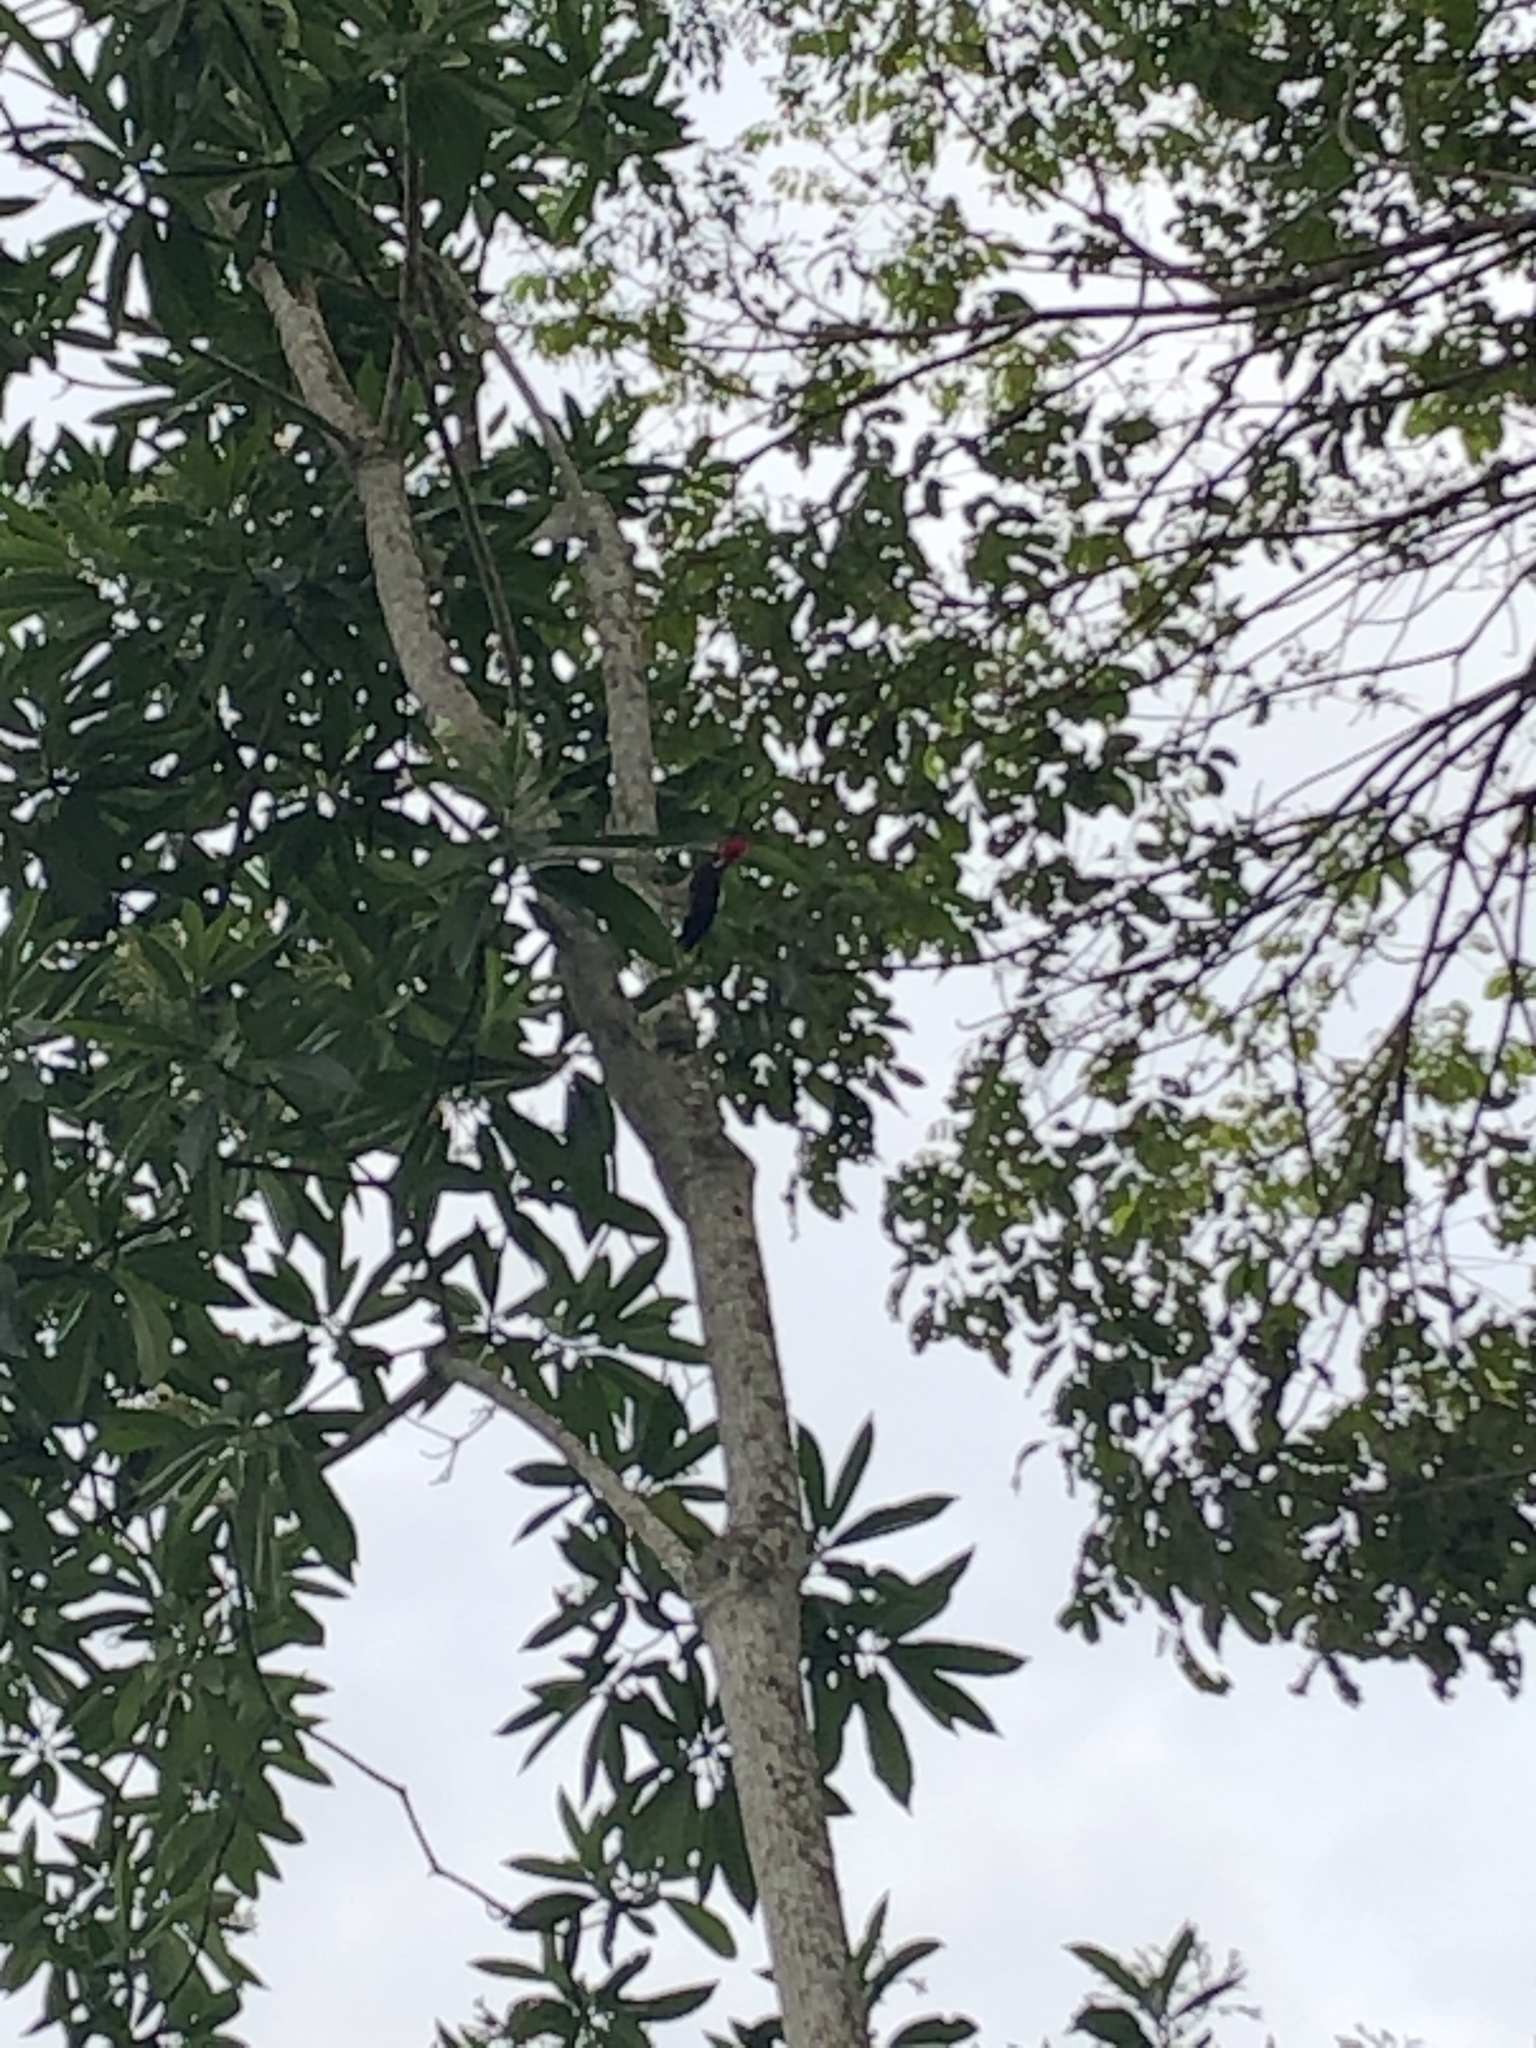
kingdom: Animalia
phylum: Chordata
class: Aves
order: Piciformes
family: Picidae
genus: Dryocopus
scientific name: Dryocopus lineatus
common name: Lineated woodpecker
